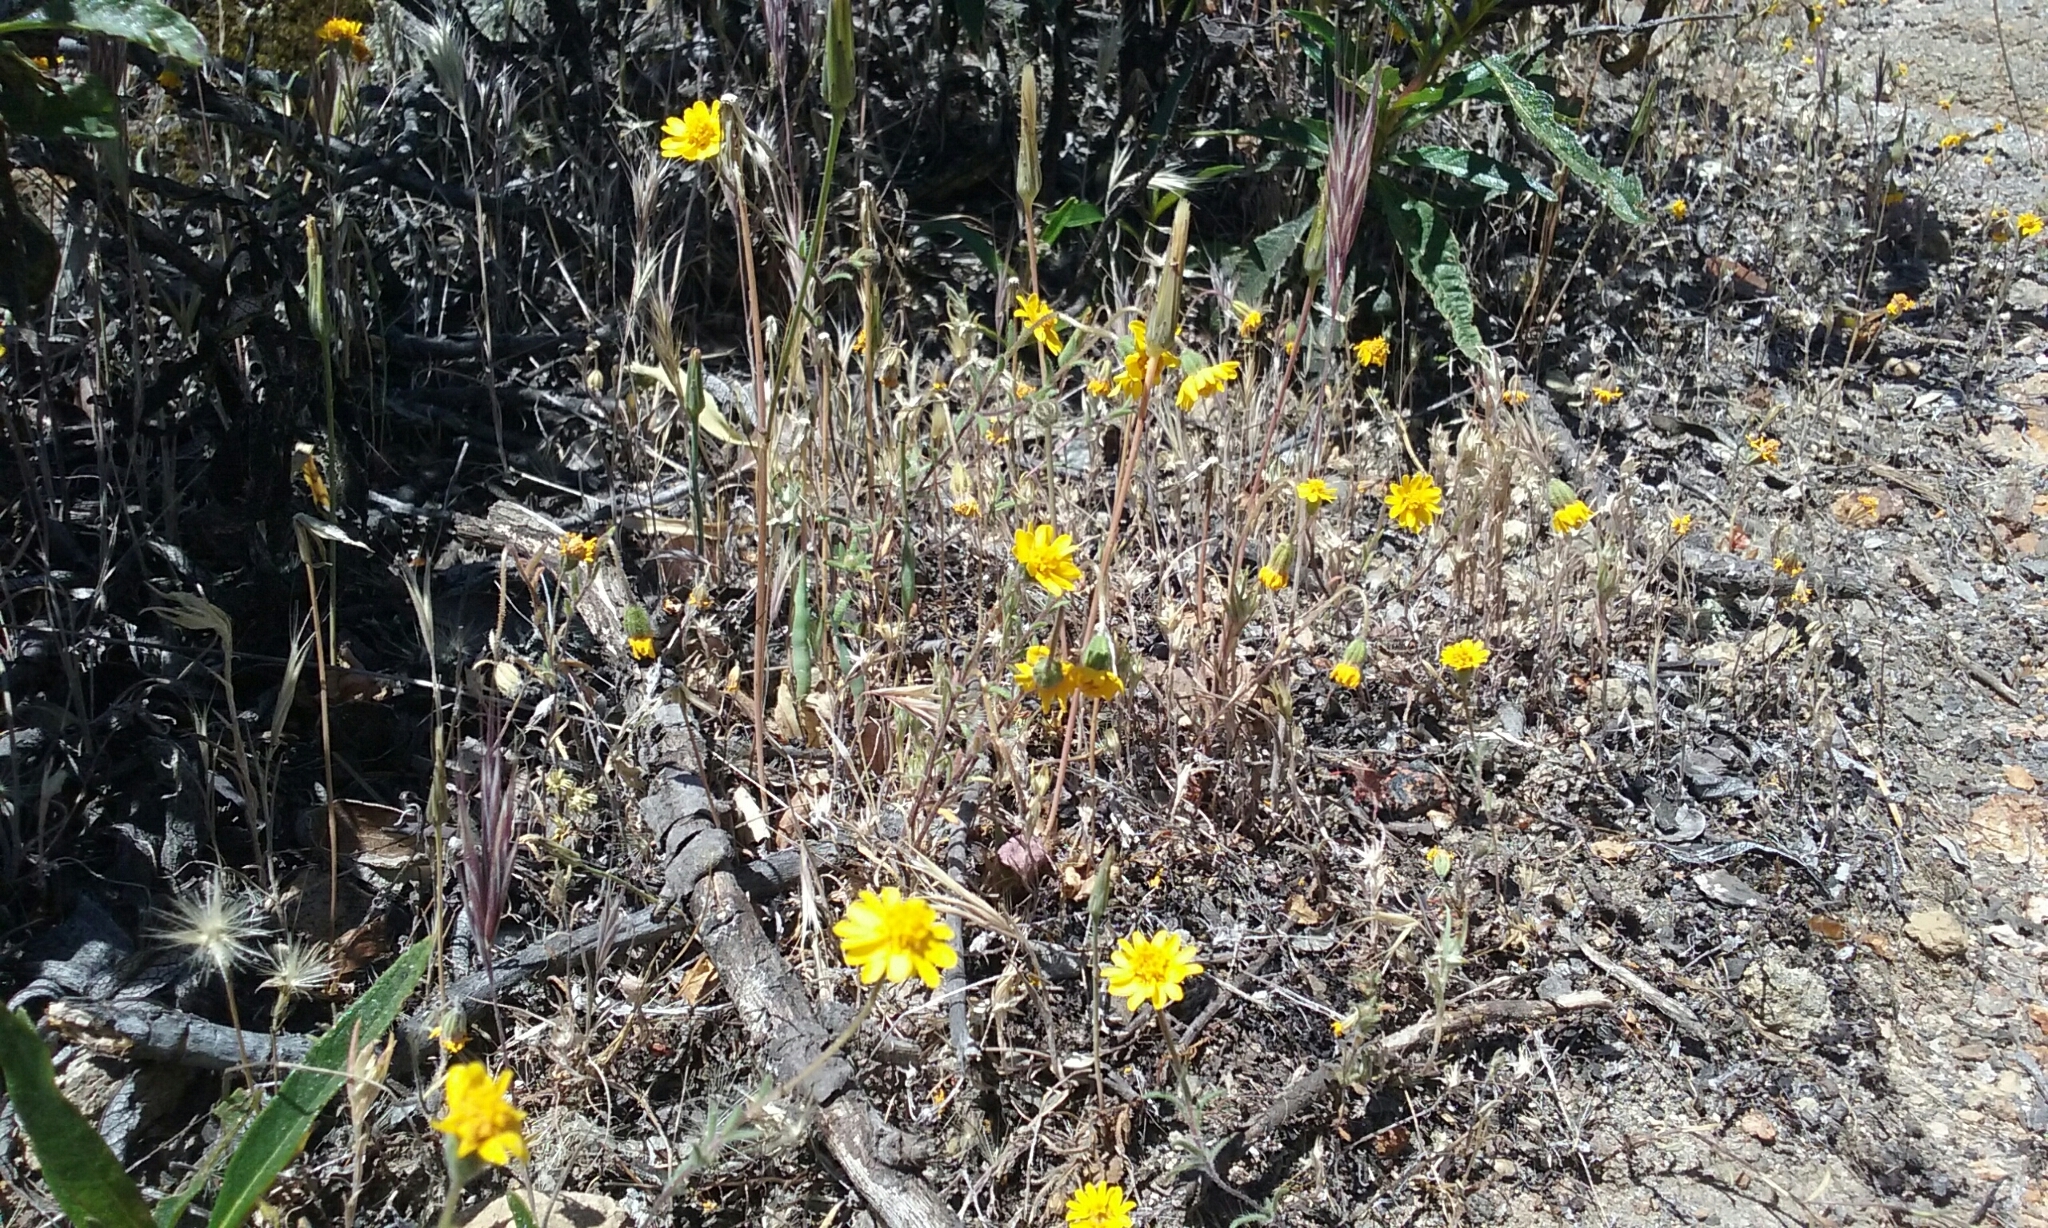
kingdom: Plantae
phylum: Tracheophyta
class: Magnoliopsida
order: Asterales
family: Asteraceae
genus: Harmonia
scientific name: Harmonia nutans
